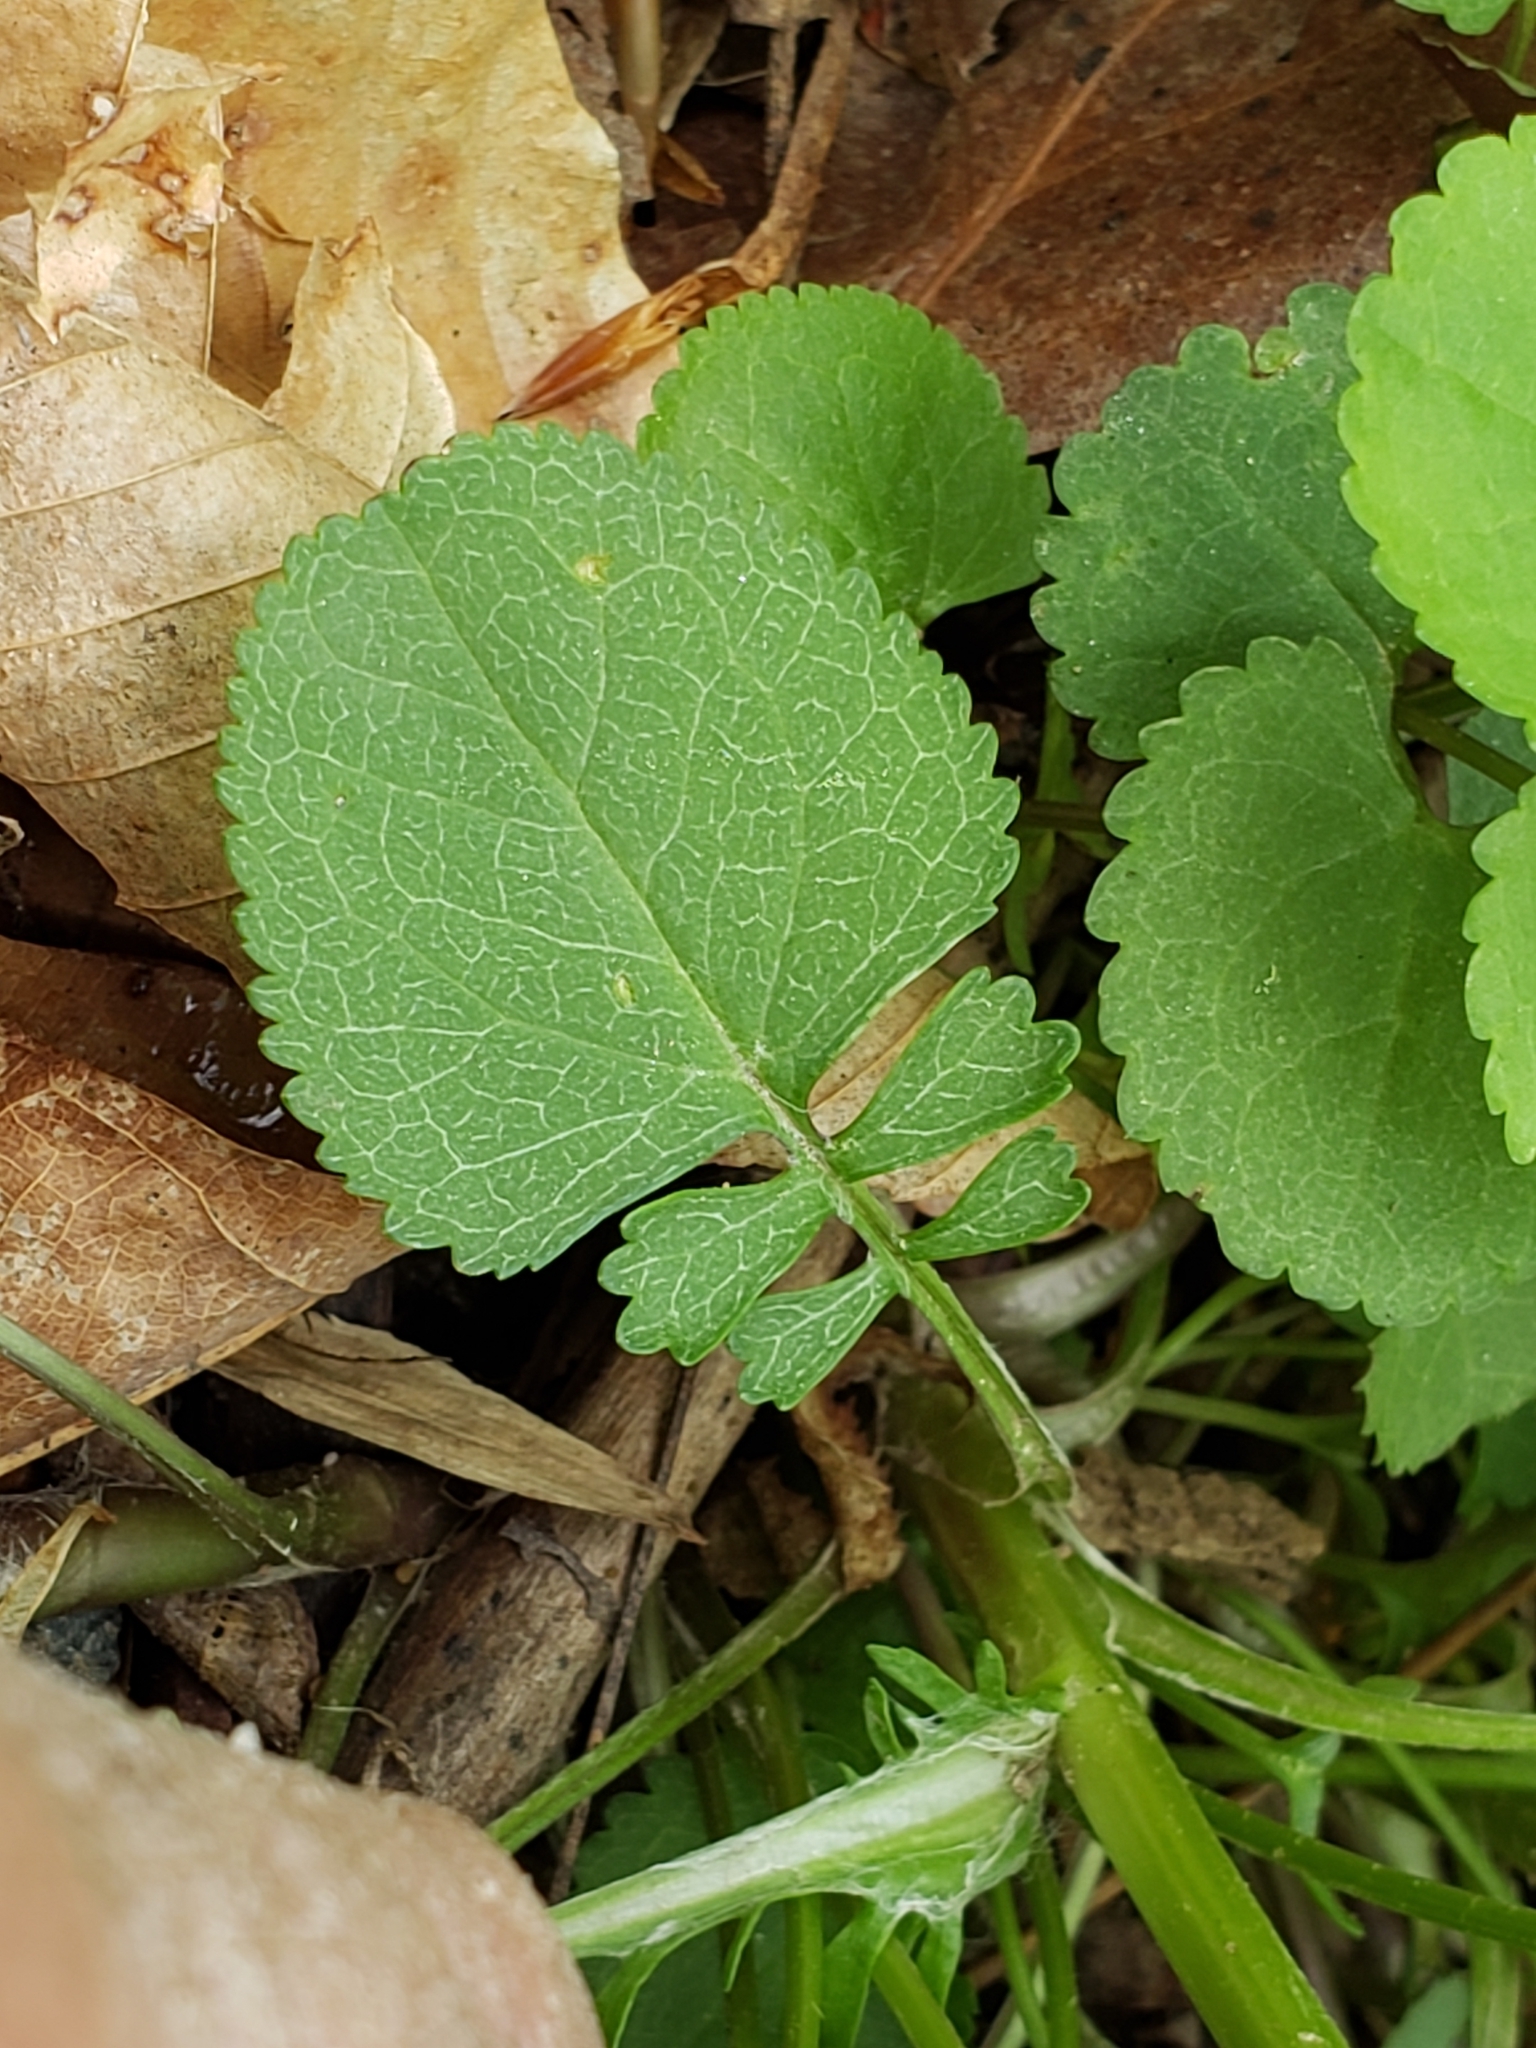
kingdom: Plantae
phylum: Tracheophyta
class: Magnoliopsida
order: Asterales
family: Asteraceae
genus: Packera
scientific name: Packera aurea
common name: Golden groundsel
